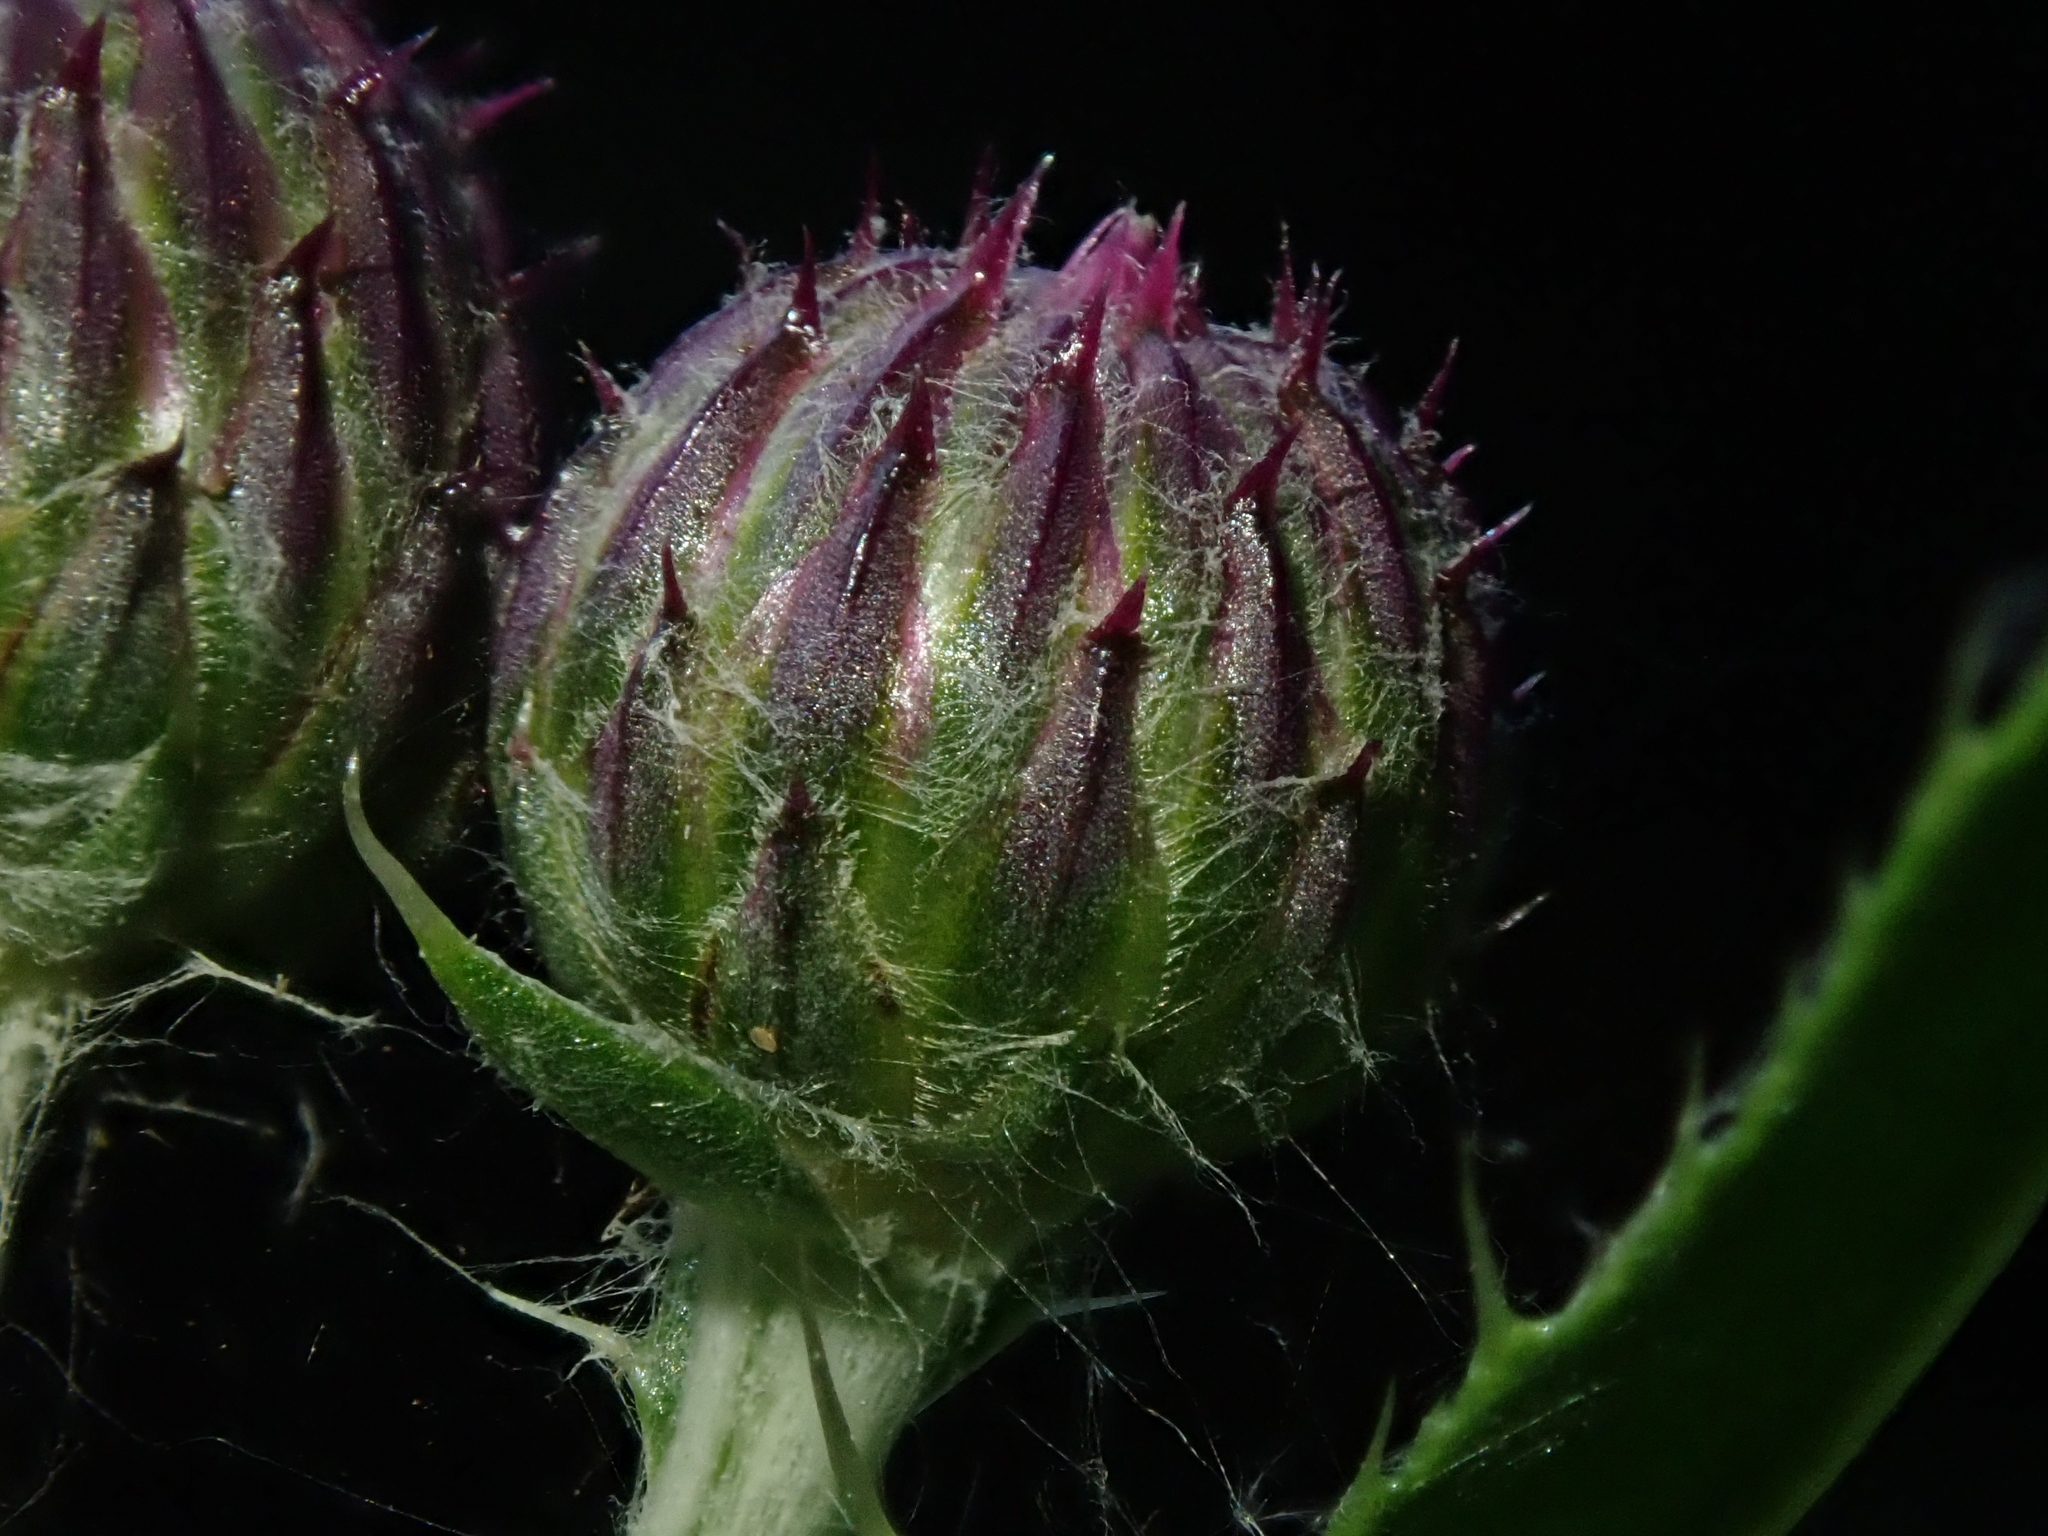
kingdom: Plantae
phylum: Tracheophyta
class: Magnoliopsida
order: Asterales
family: Asteraceae
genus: Cirsium
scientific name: Cirsium arvense
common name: Creeping thistle
